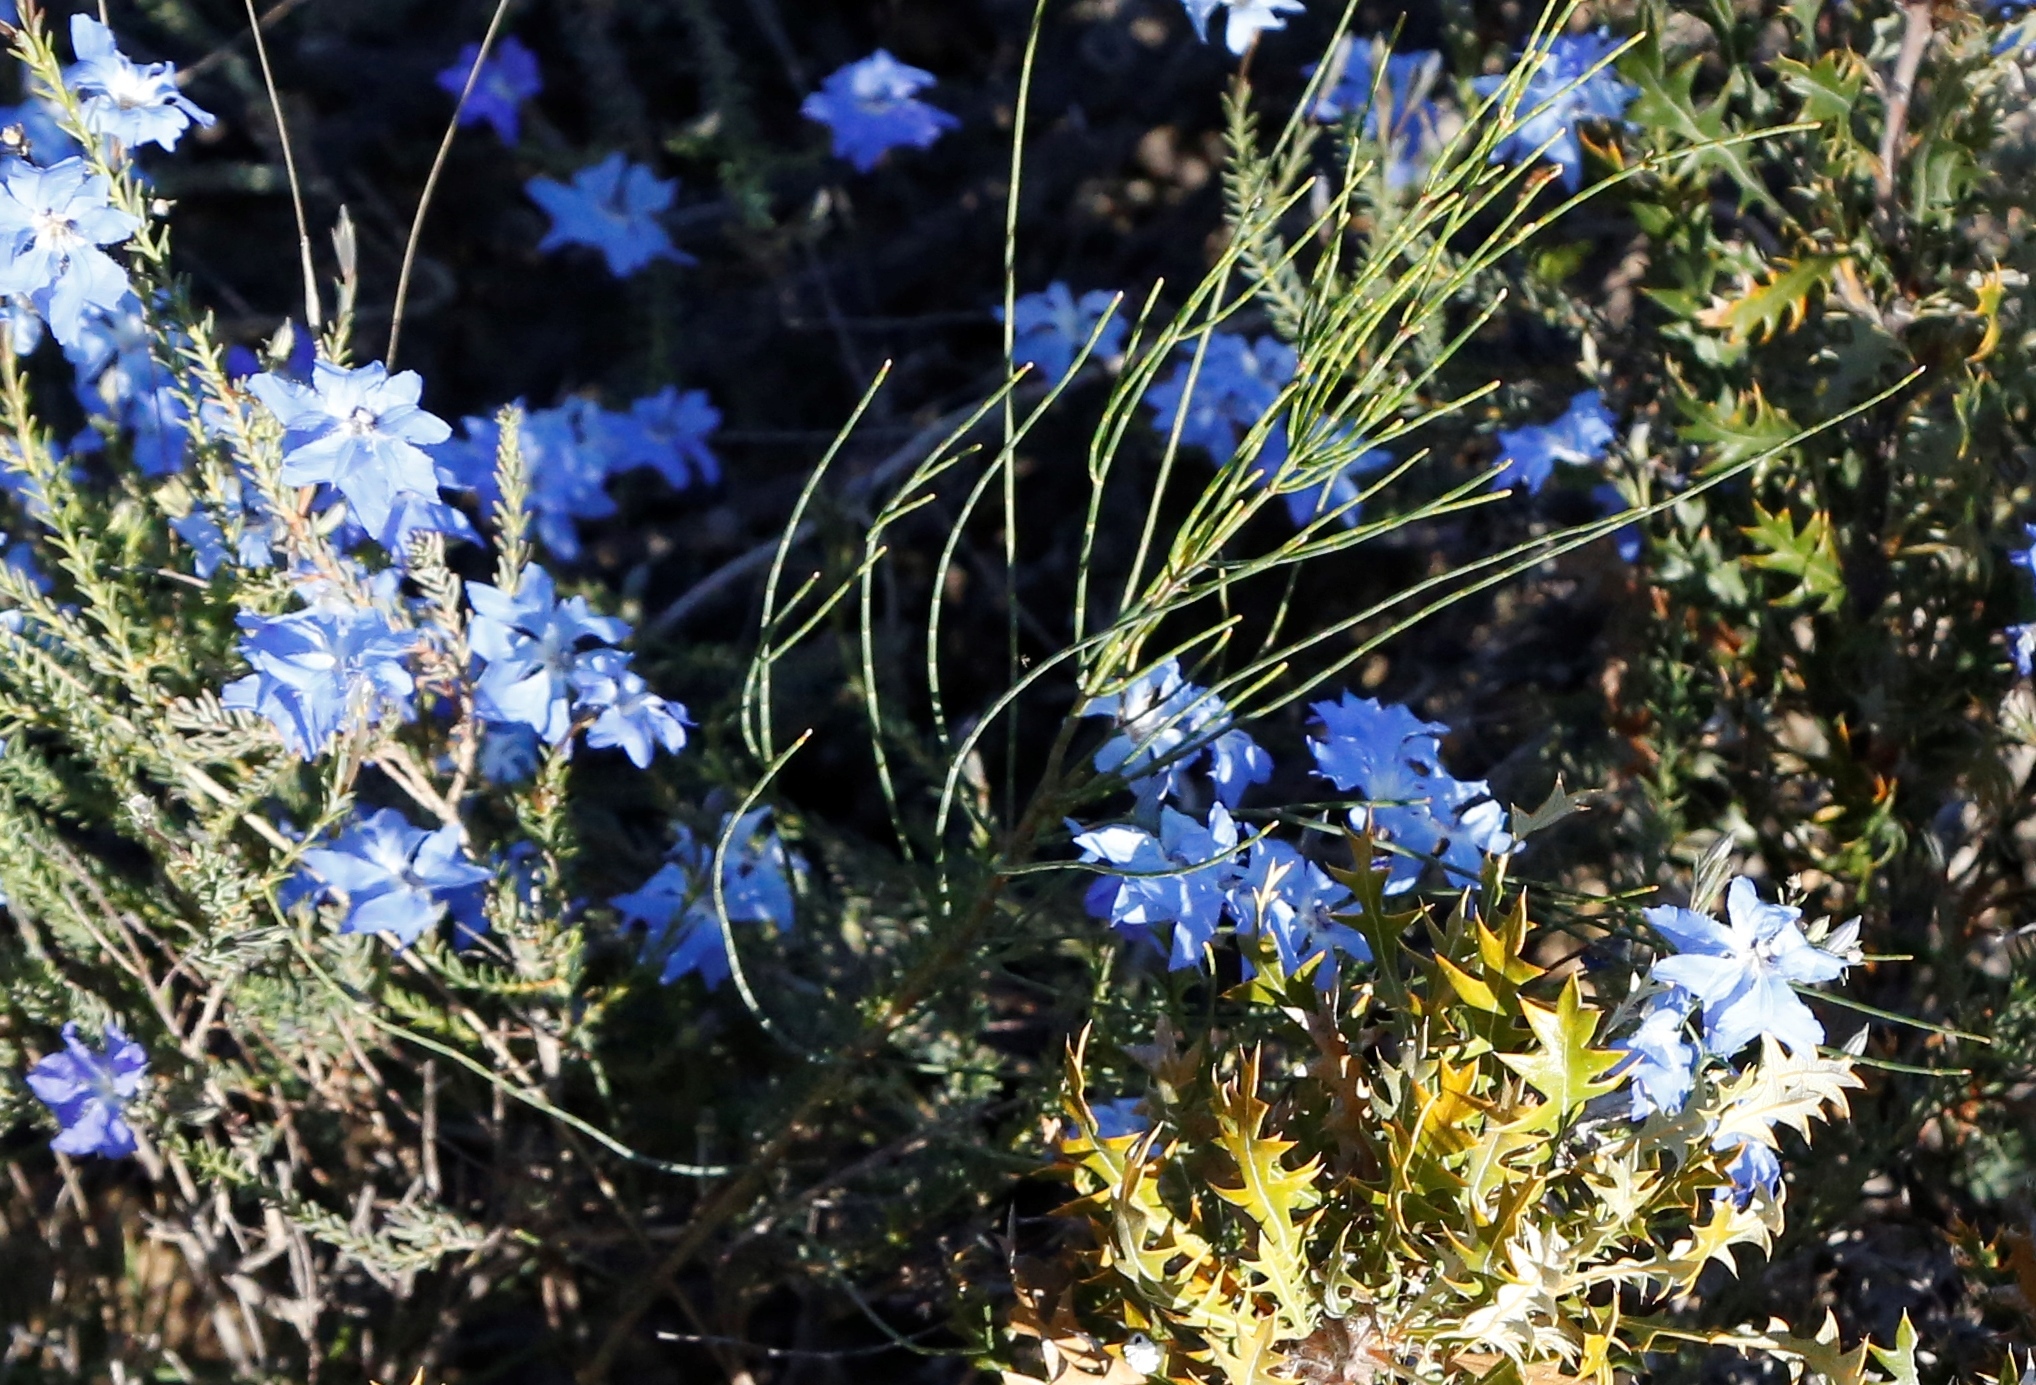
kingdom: Plantae
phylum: Tracheophyta
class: Magnoliopsida
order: Asterales
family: Goodeniaceae
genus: Lechenaultia
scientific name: Lechenaultia biloba
